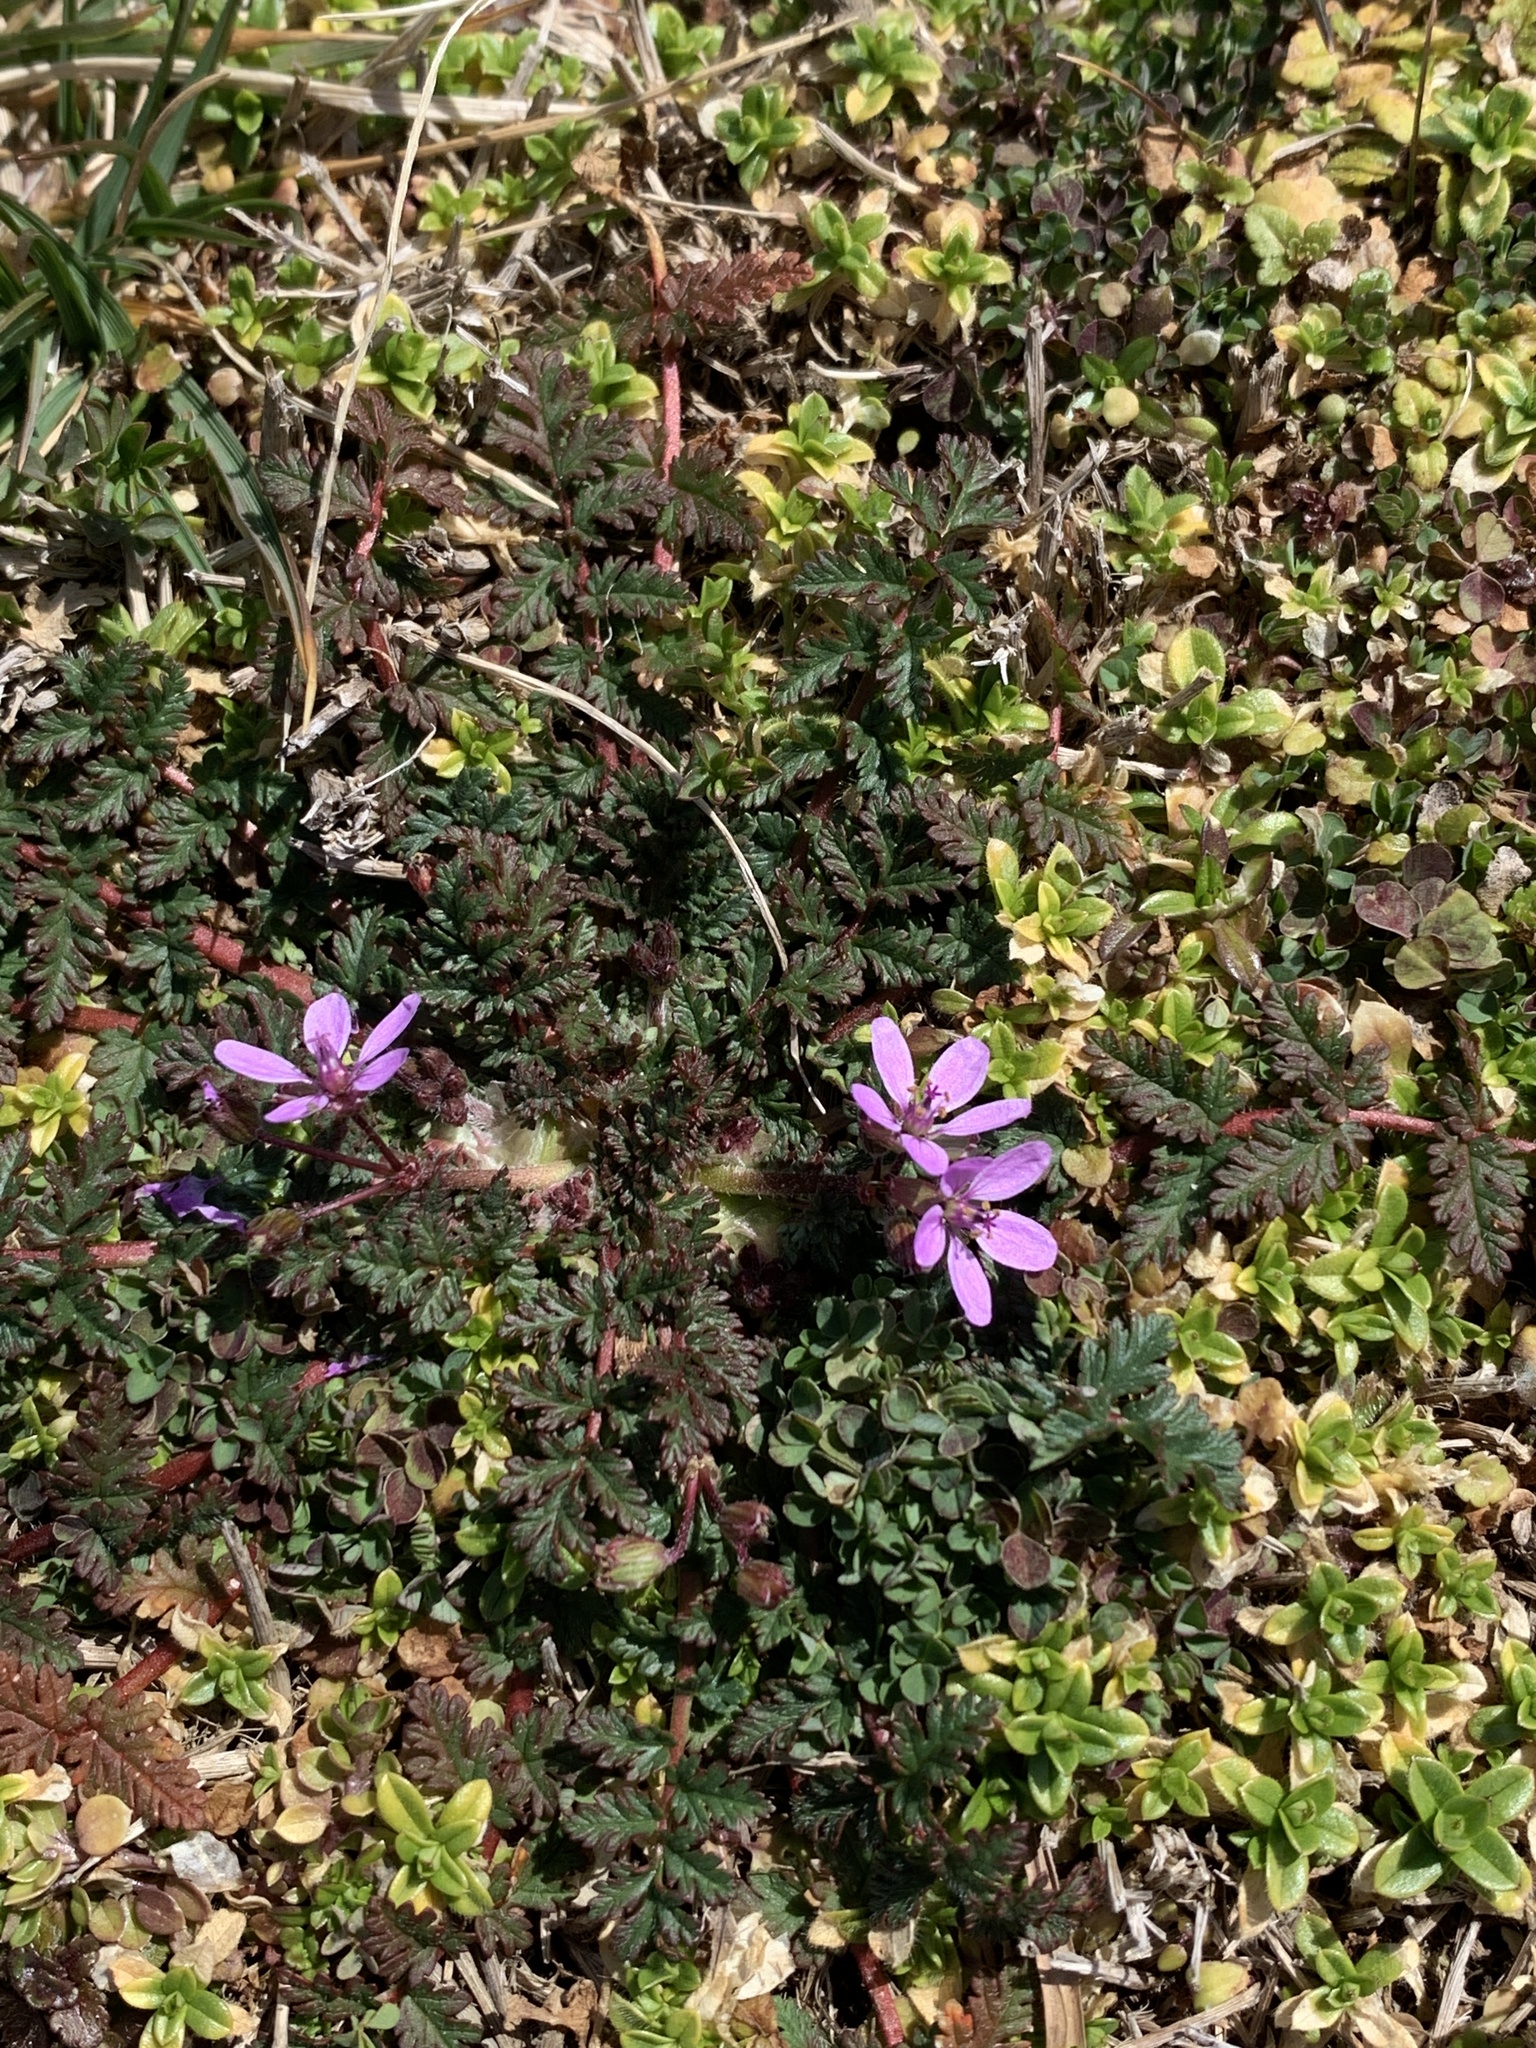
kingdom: Plantae
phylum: Tracheophyta
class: Magnoliopsida
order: Geraniales
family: Geraniaceae
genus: Erodium
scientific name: Erodium cicutarium
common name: Common stork's-bill
